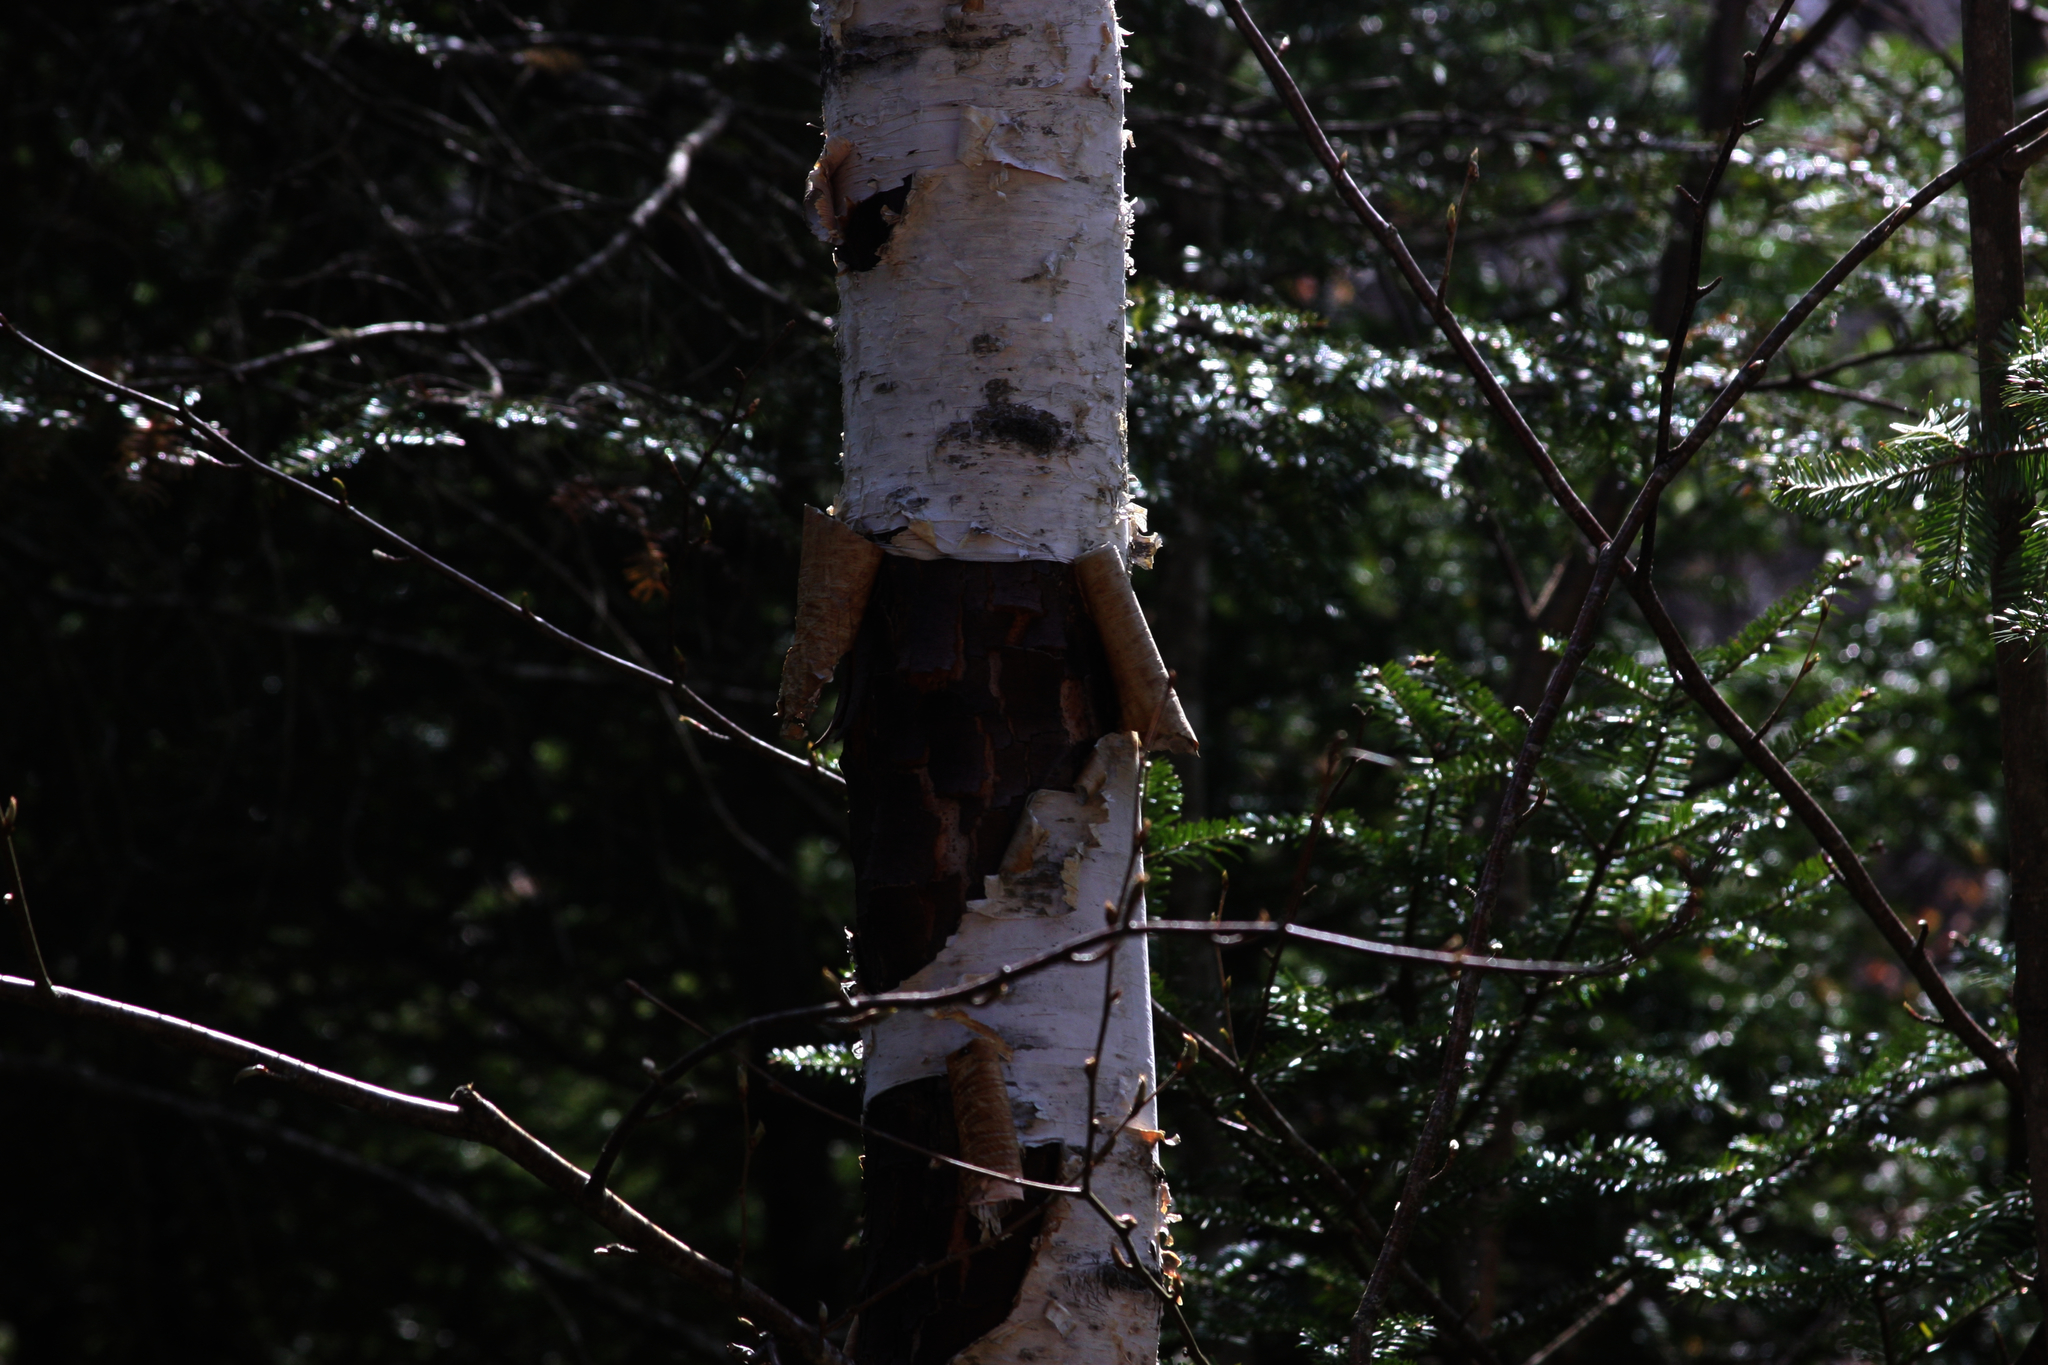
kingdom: Plantae
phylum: Tracheophyta
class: Magnoliopsida
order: Fagales
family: Betulaceae
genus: Betula
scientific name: Betula papyrifera
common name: Paper birch
